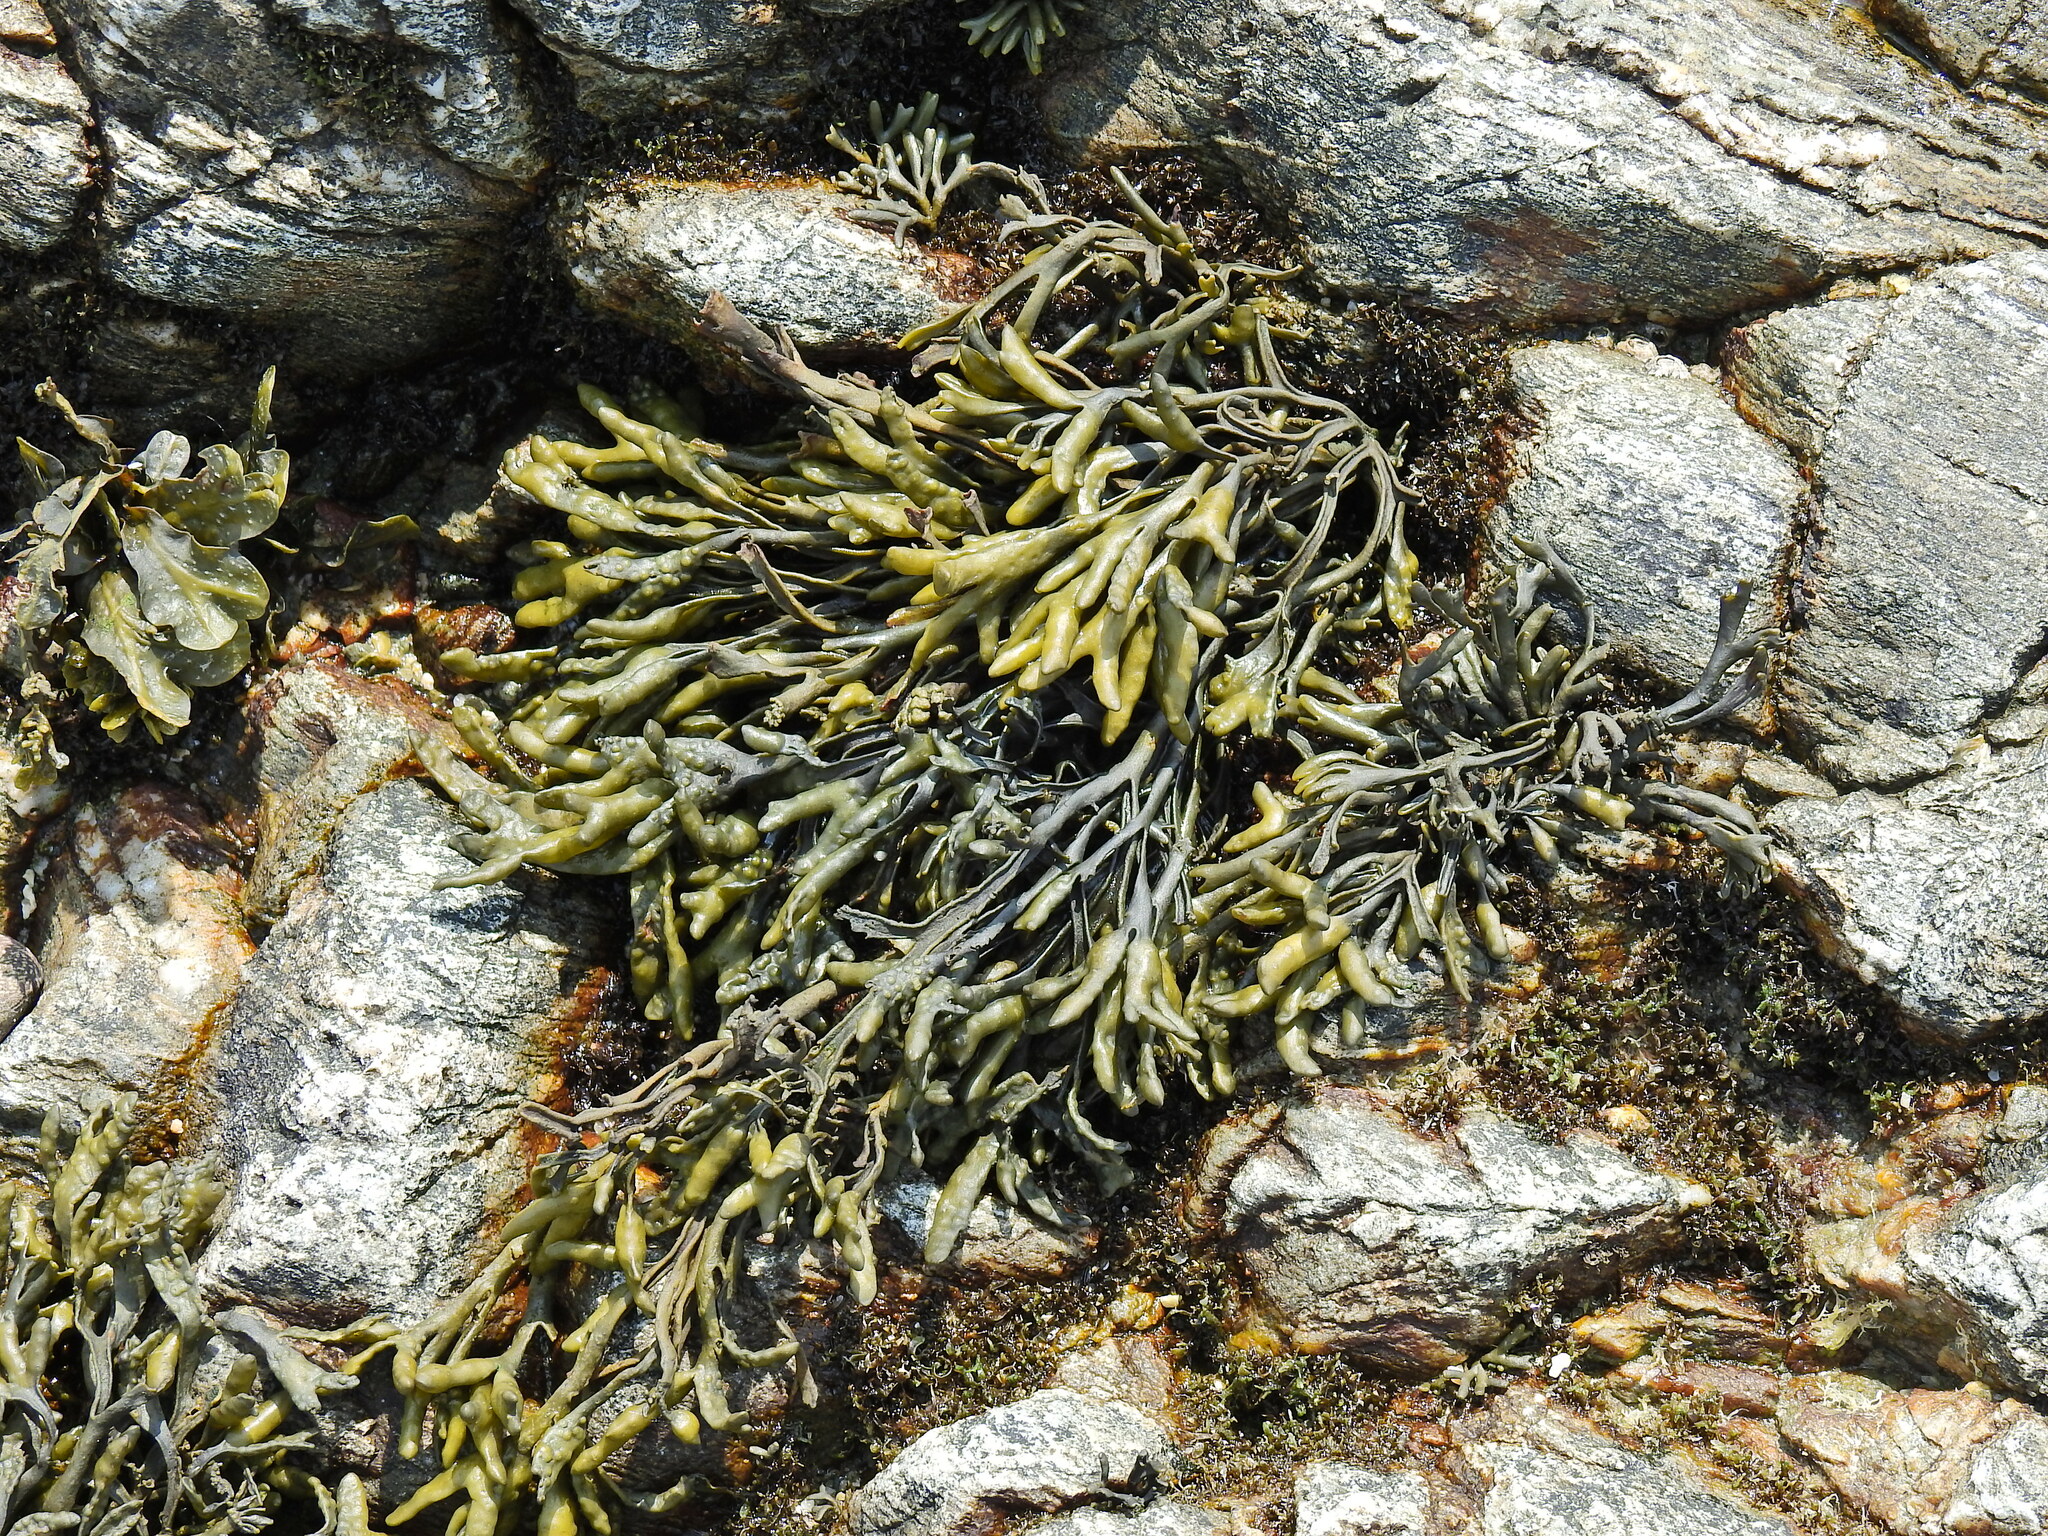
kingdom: Chromista
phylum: Ochrophyta
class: Phaeophyceae
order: Fucales
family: Fucaceae
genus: Pelvetia
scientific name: Pelvetia canaliculata
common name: Channelled wrack
